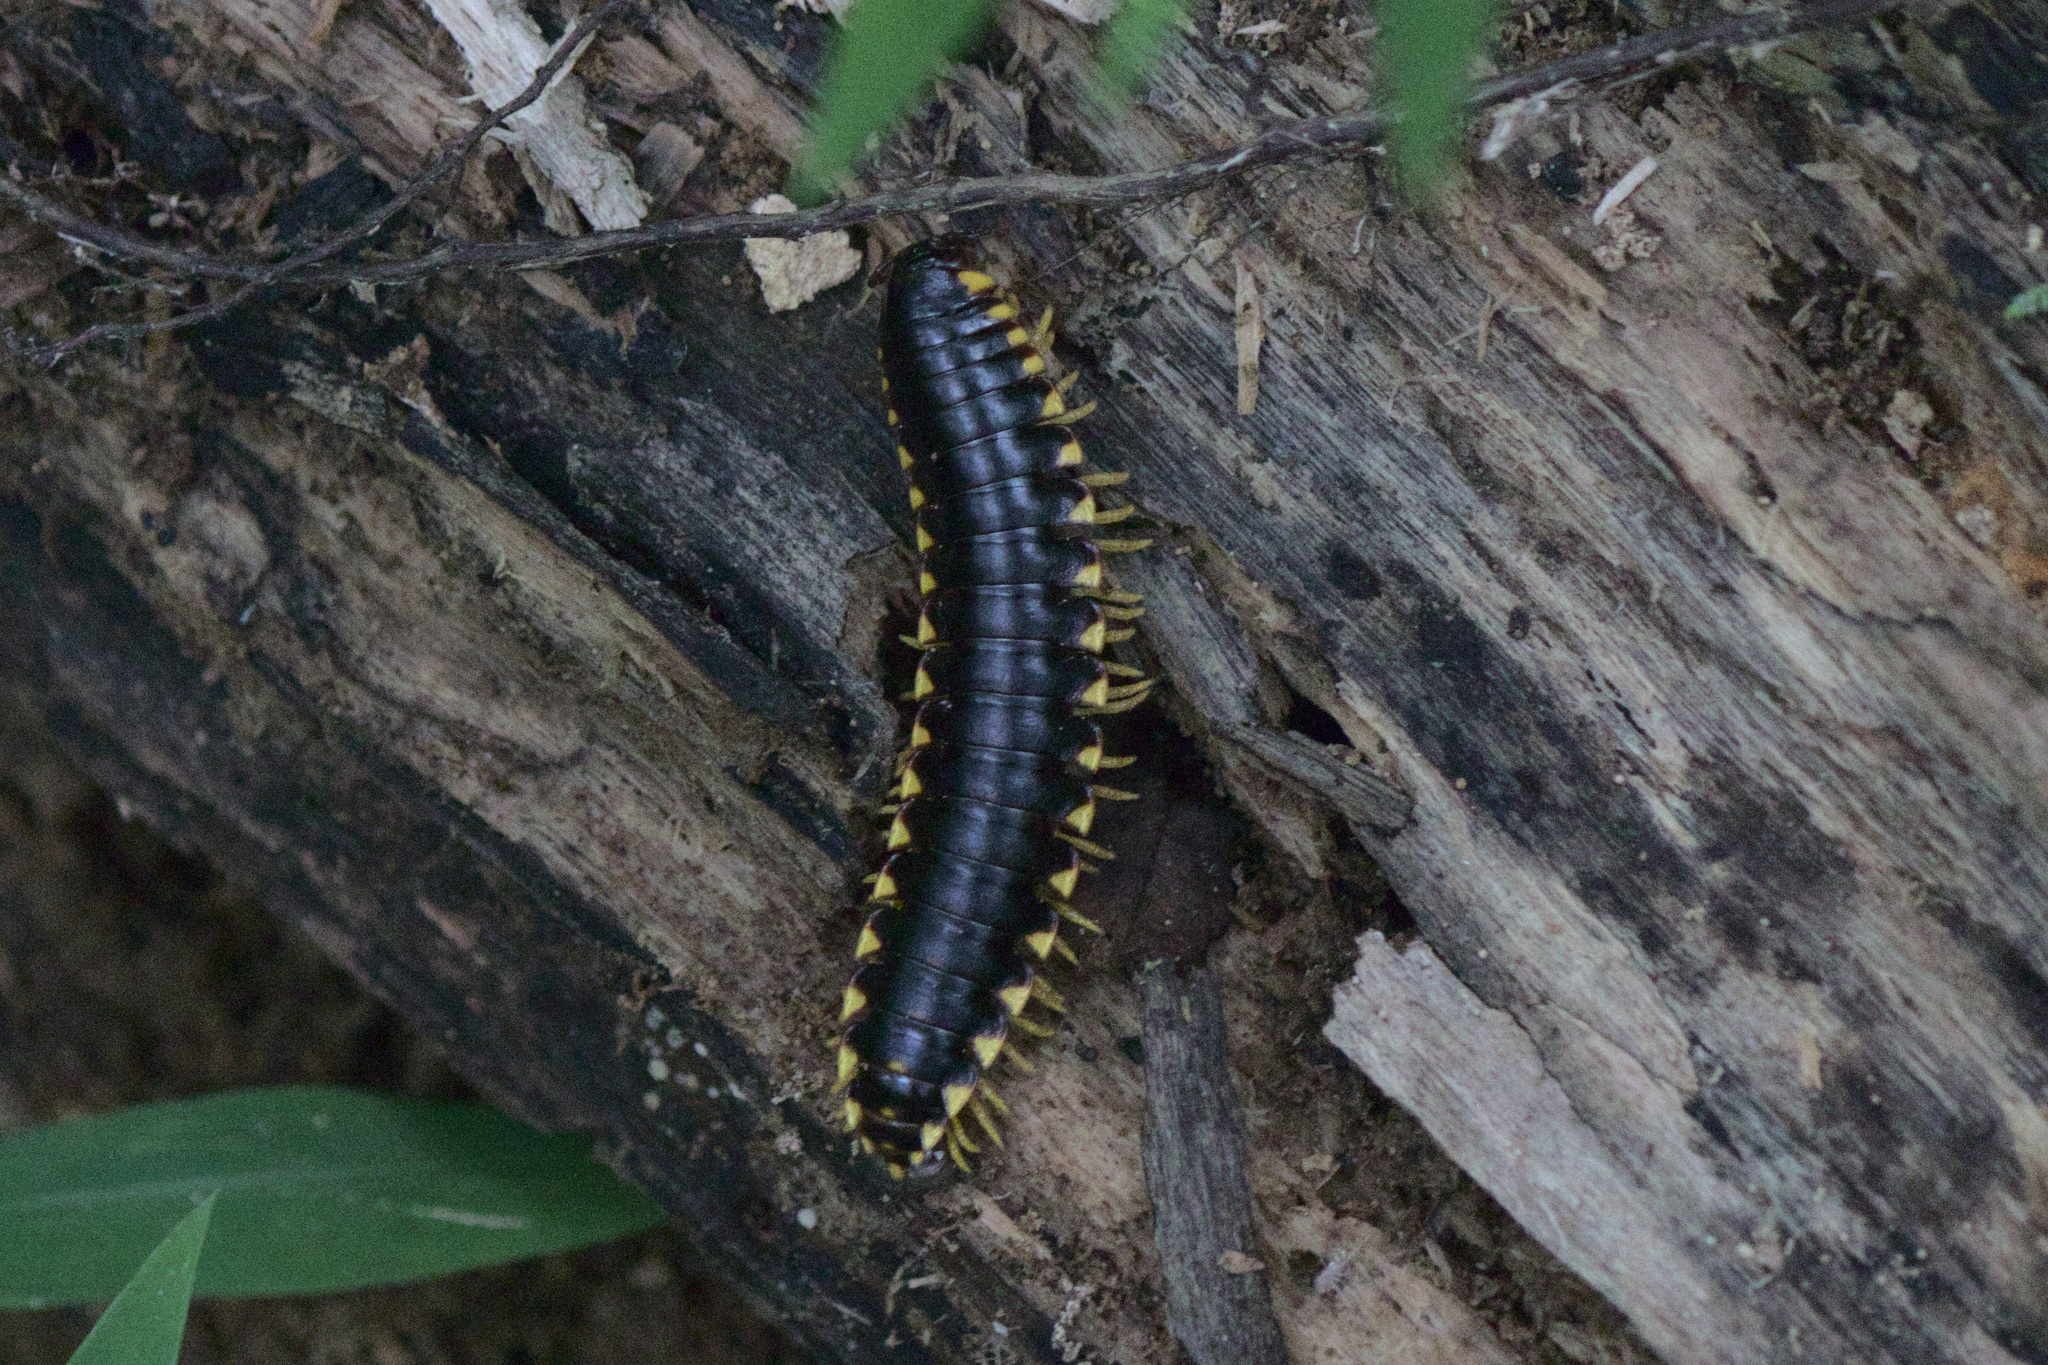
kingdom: Animalia
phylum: Arthropoda
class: Diplopoda
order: Polydesmida
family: Xystodesmidae
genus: Apheloria
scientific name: Apheloria tigana
